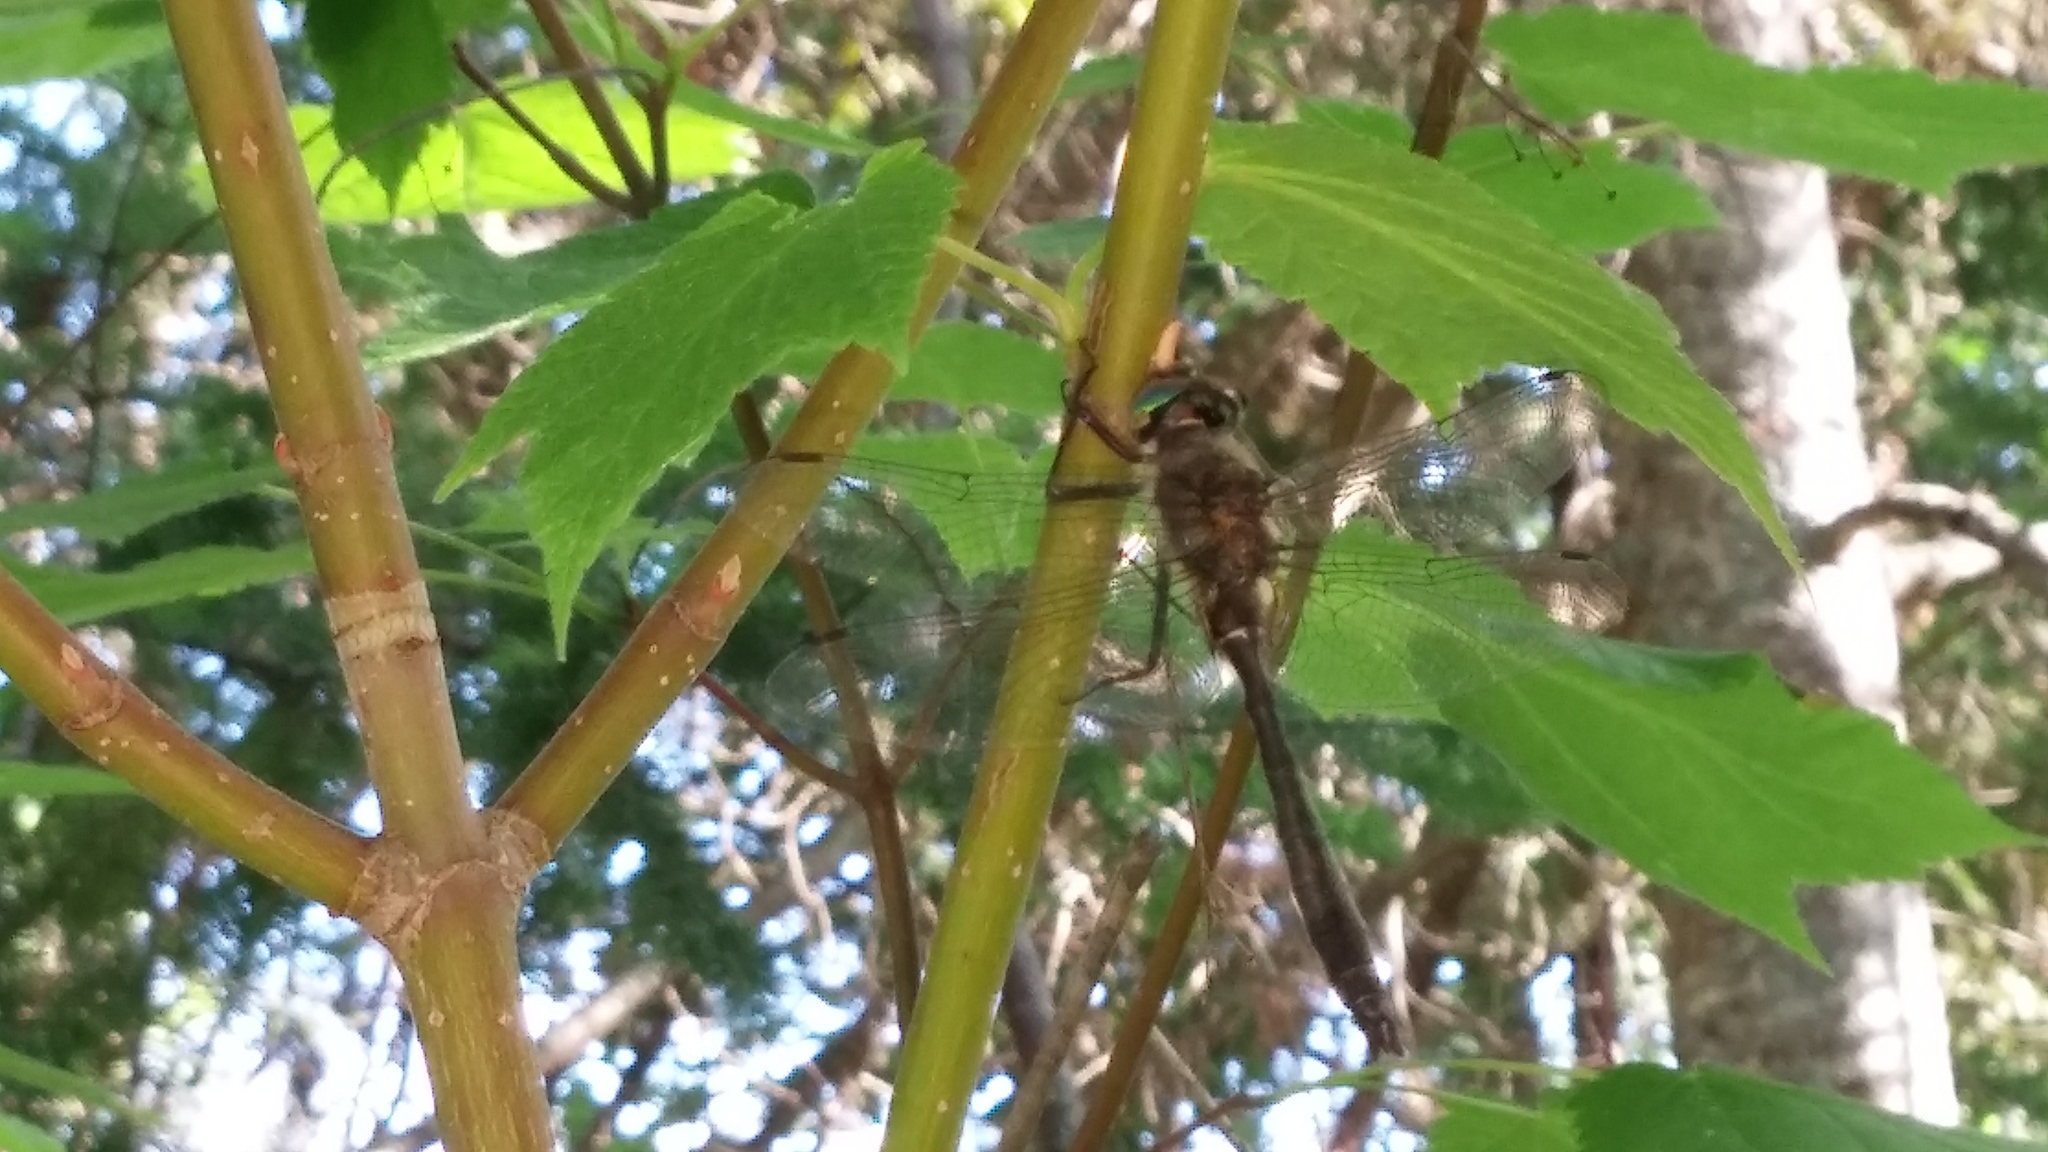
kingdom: Animalia
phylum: Arthropoda
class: Insecta
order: Odonata
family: Corduliidae
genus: Cordulia
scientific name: Cordulia shurtleffii
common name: American emerald
